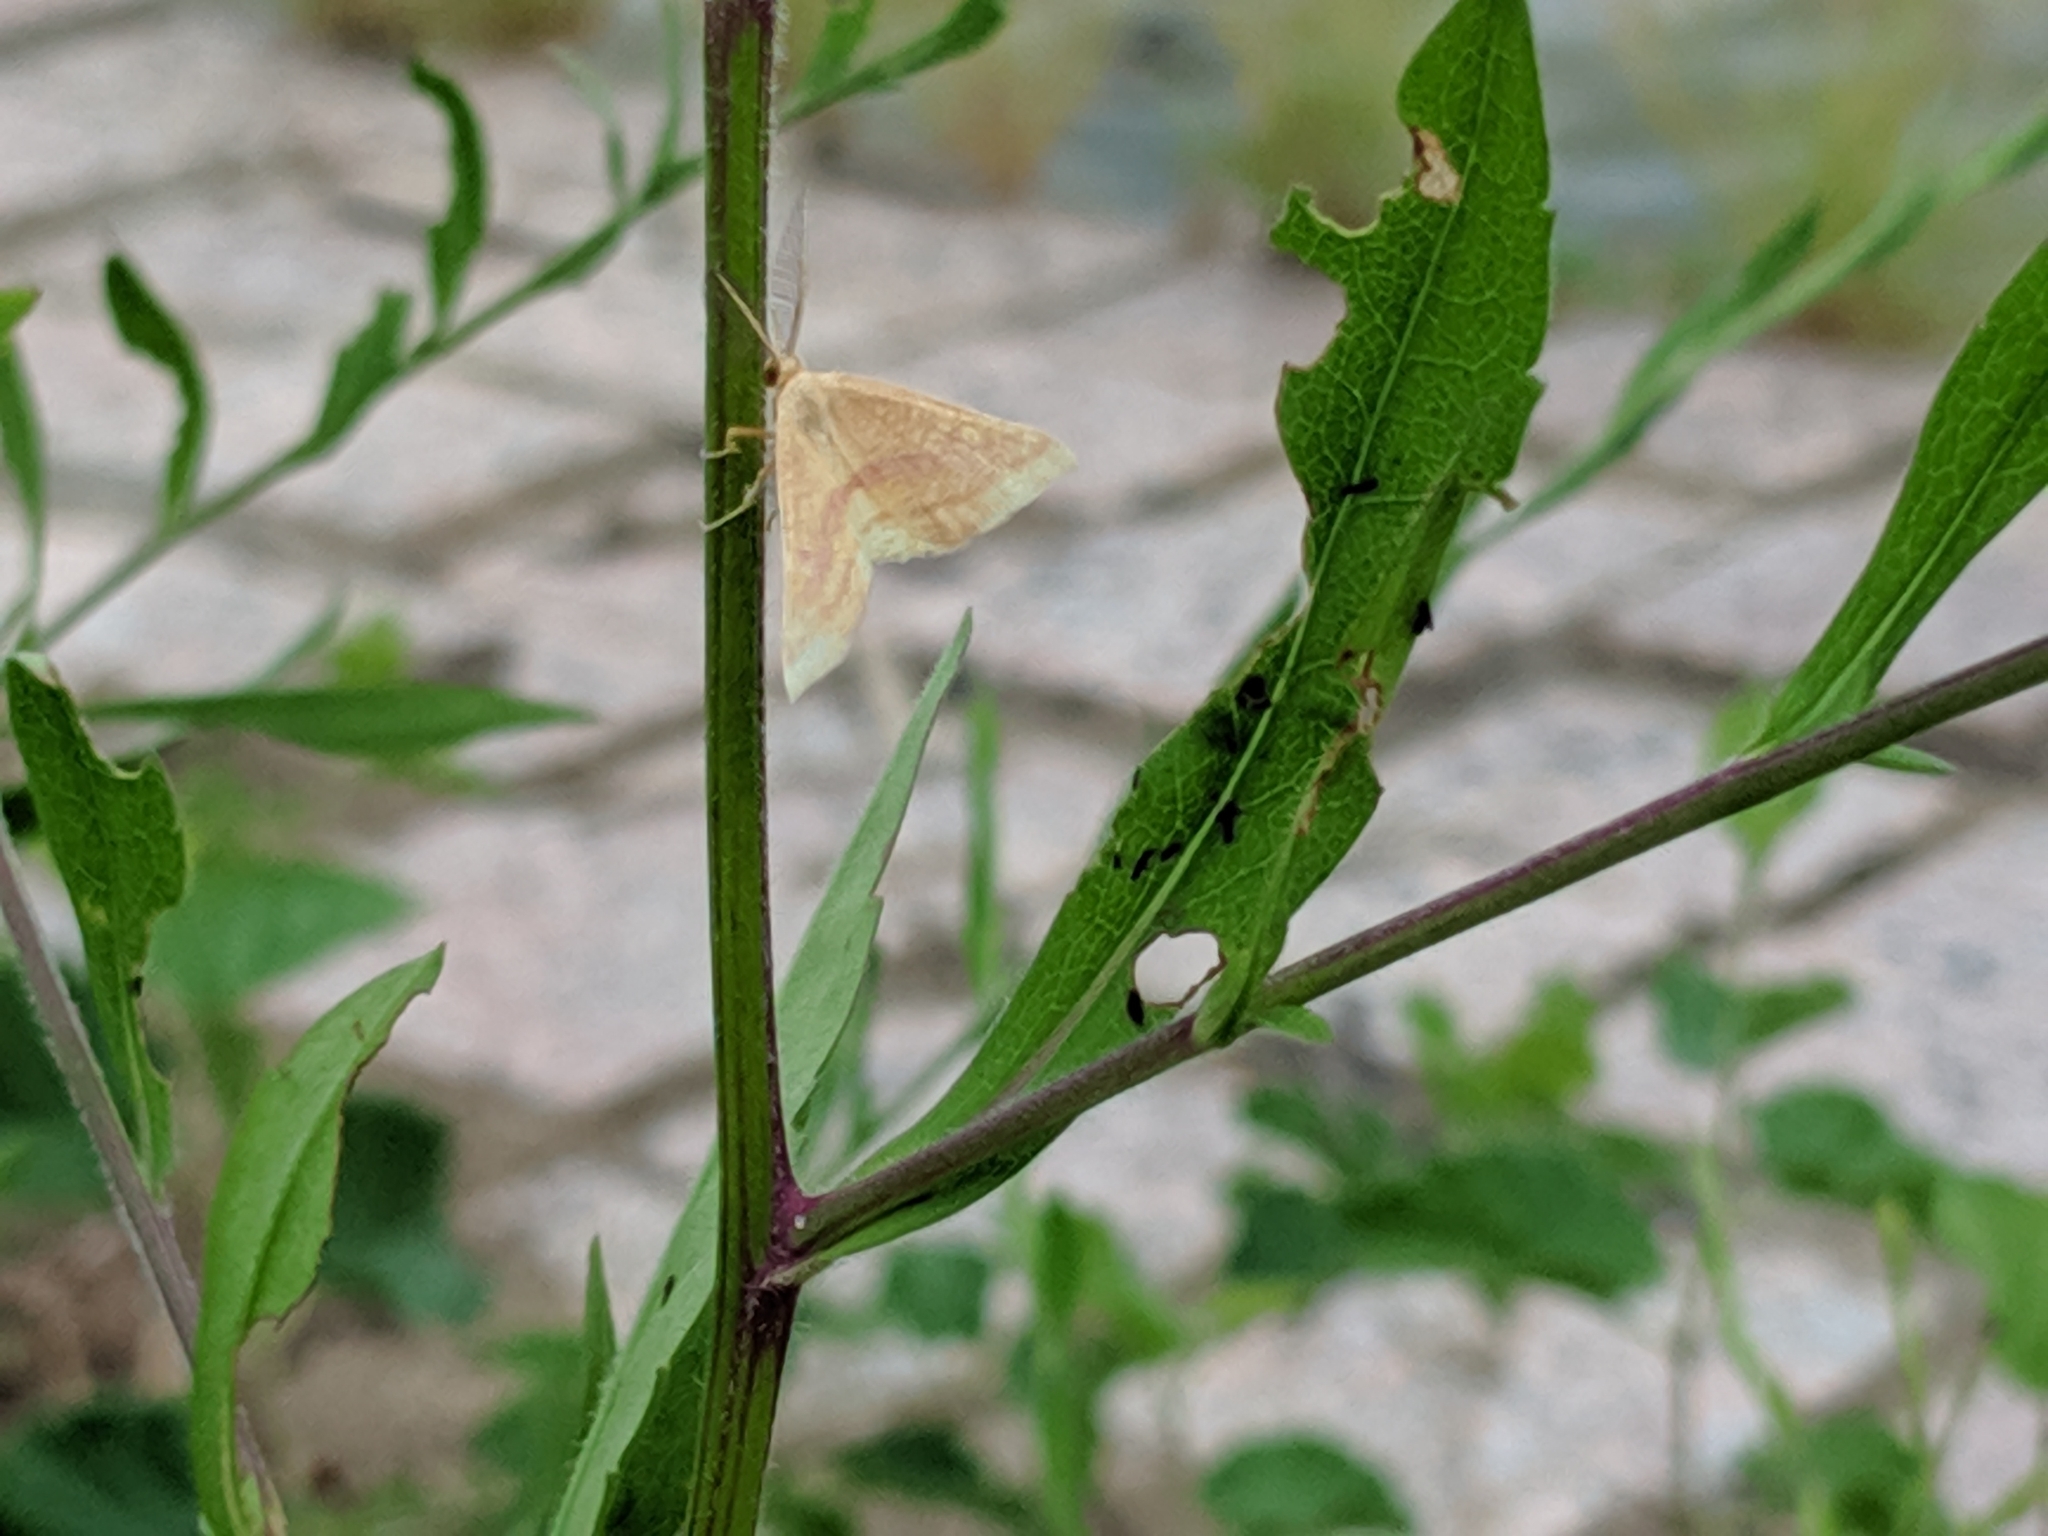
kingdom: Animalia
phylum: Arthropoda
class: Insecta
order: Lepidoptera
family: Geometridae
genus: Haematopis
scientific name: Haematopis grataria
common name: Chickweed geometer
